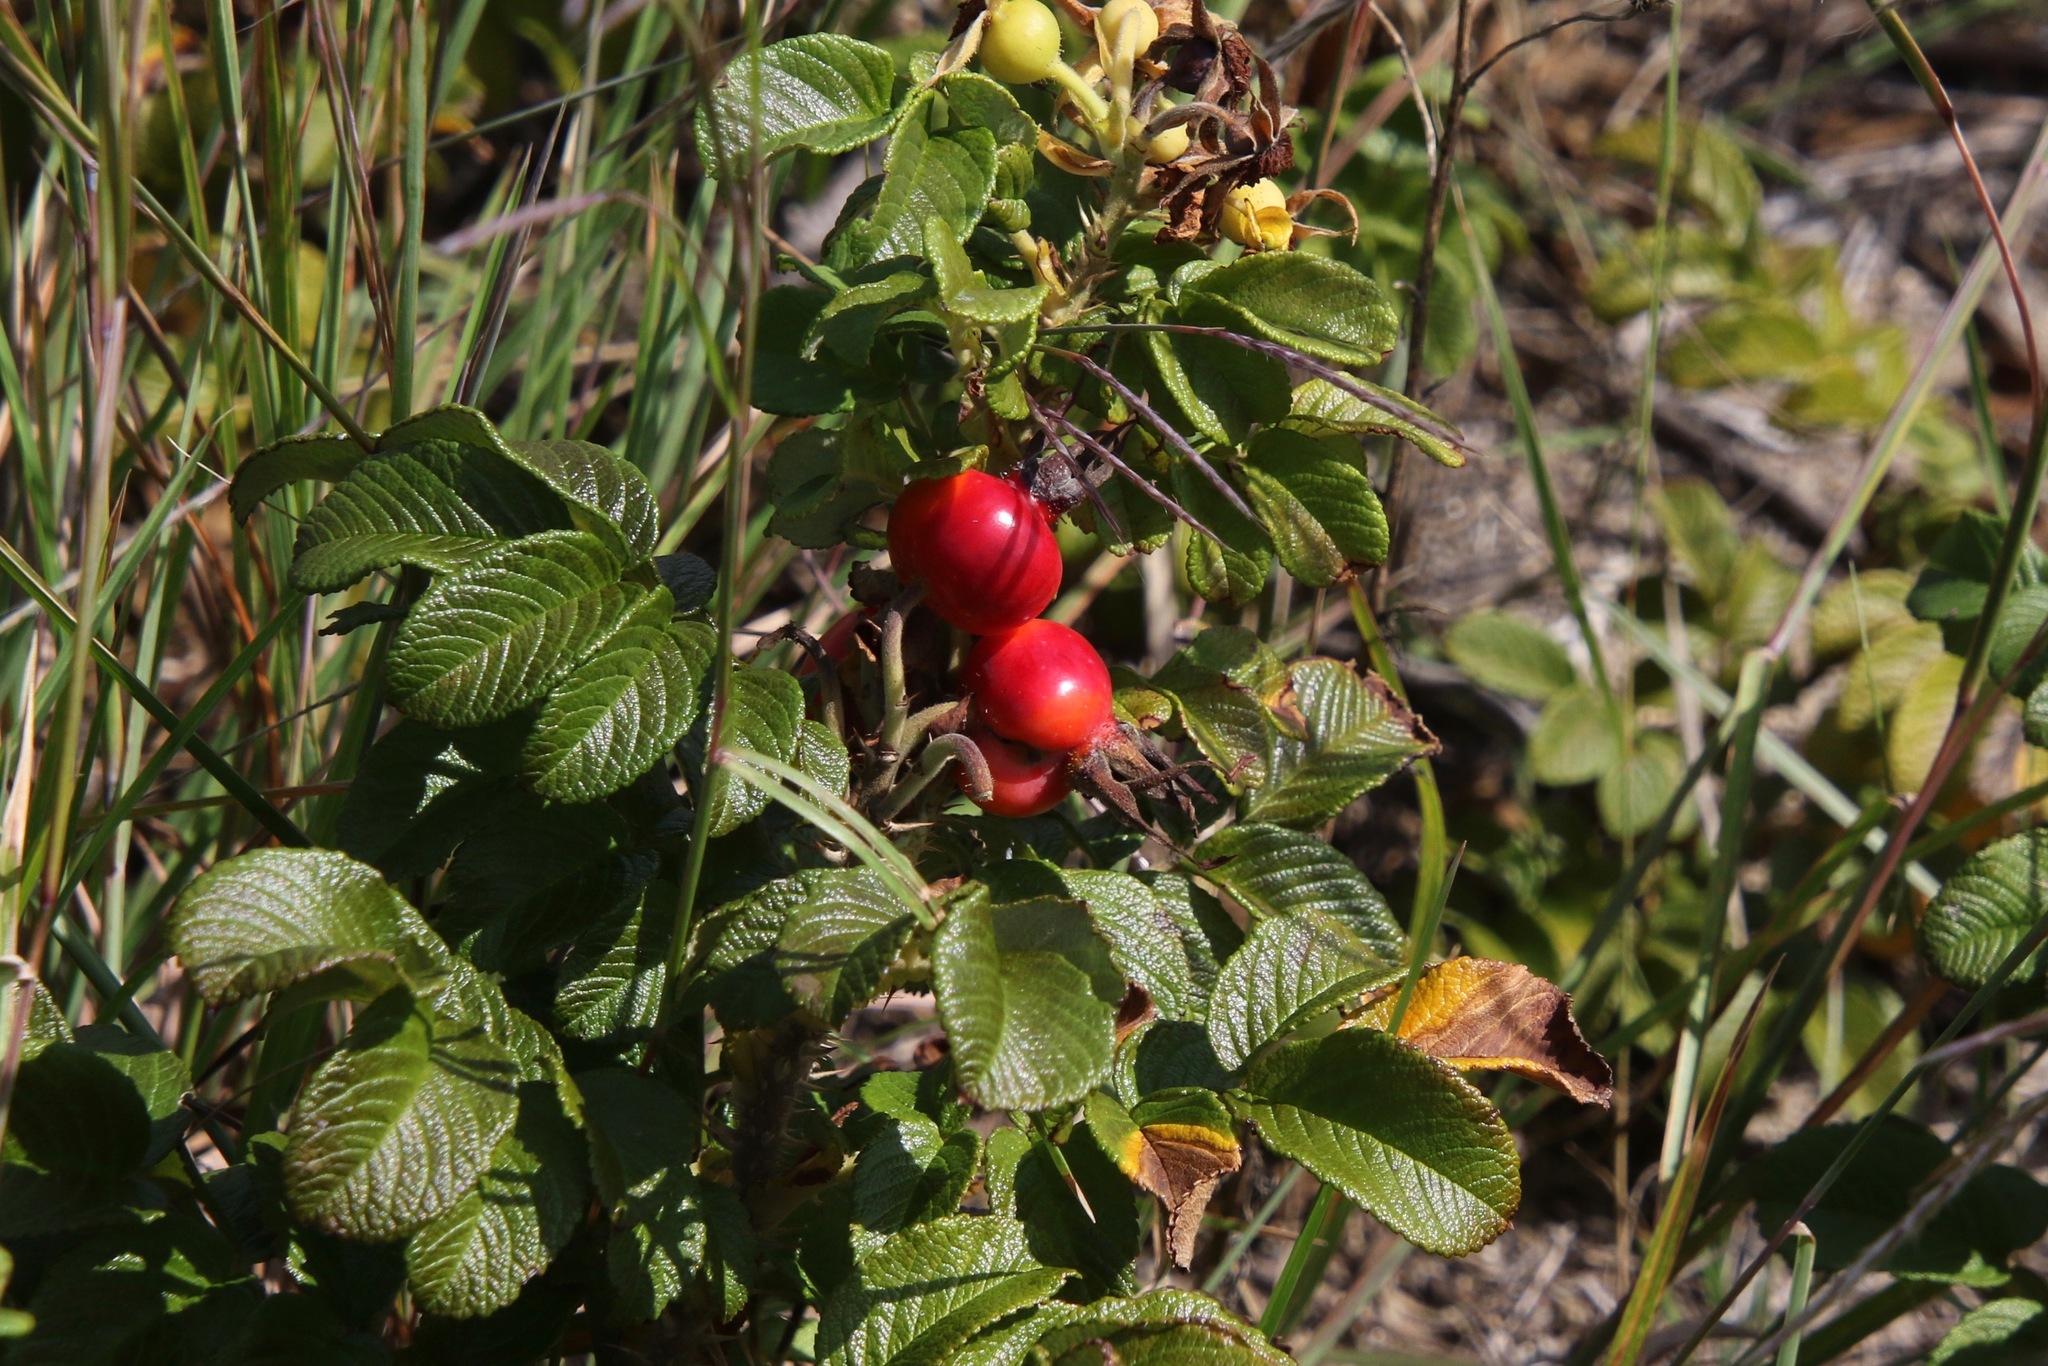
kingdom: Plantae
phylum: Tracheophyta
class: Magnoliopsida
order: Rosales
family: Rosaceae
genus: Rosa
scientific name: Rosa rugosa
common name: Japanese rose
